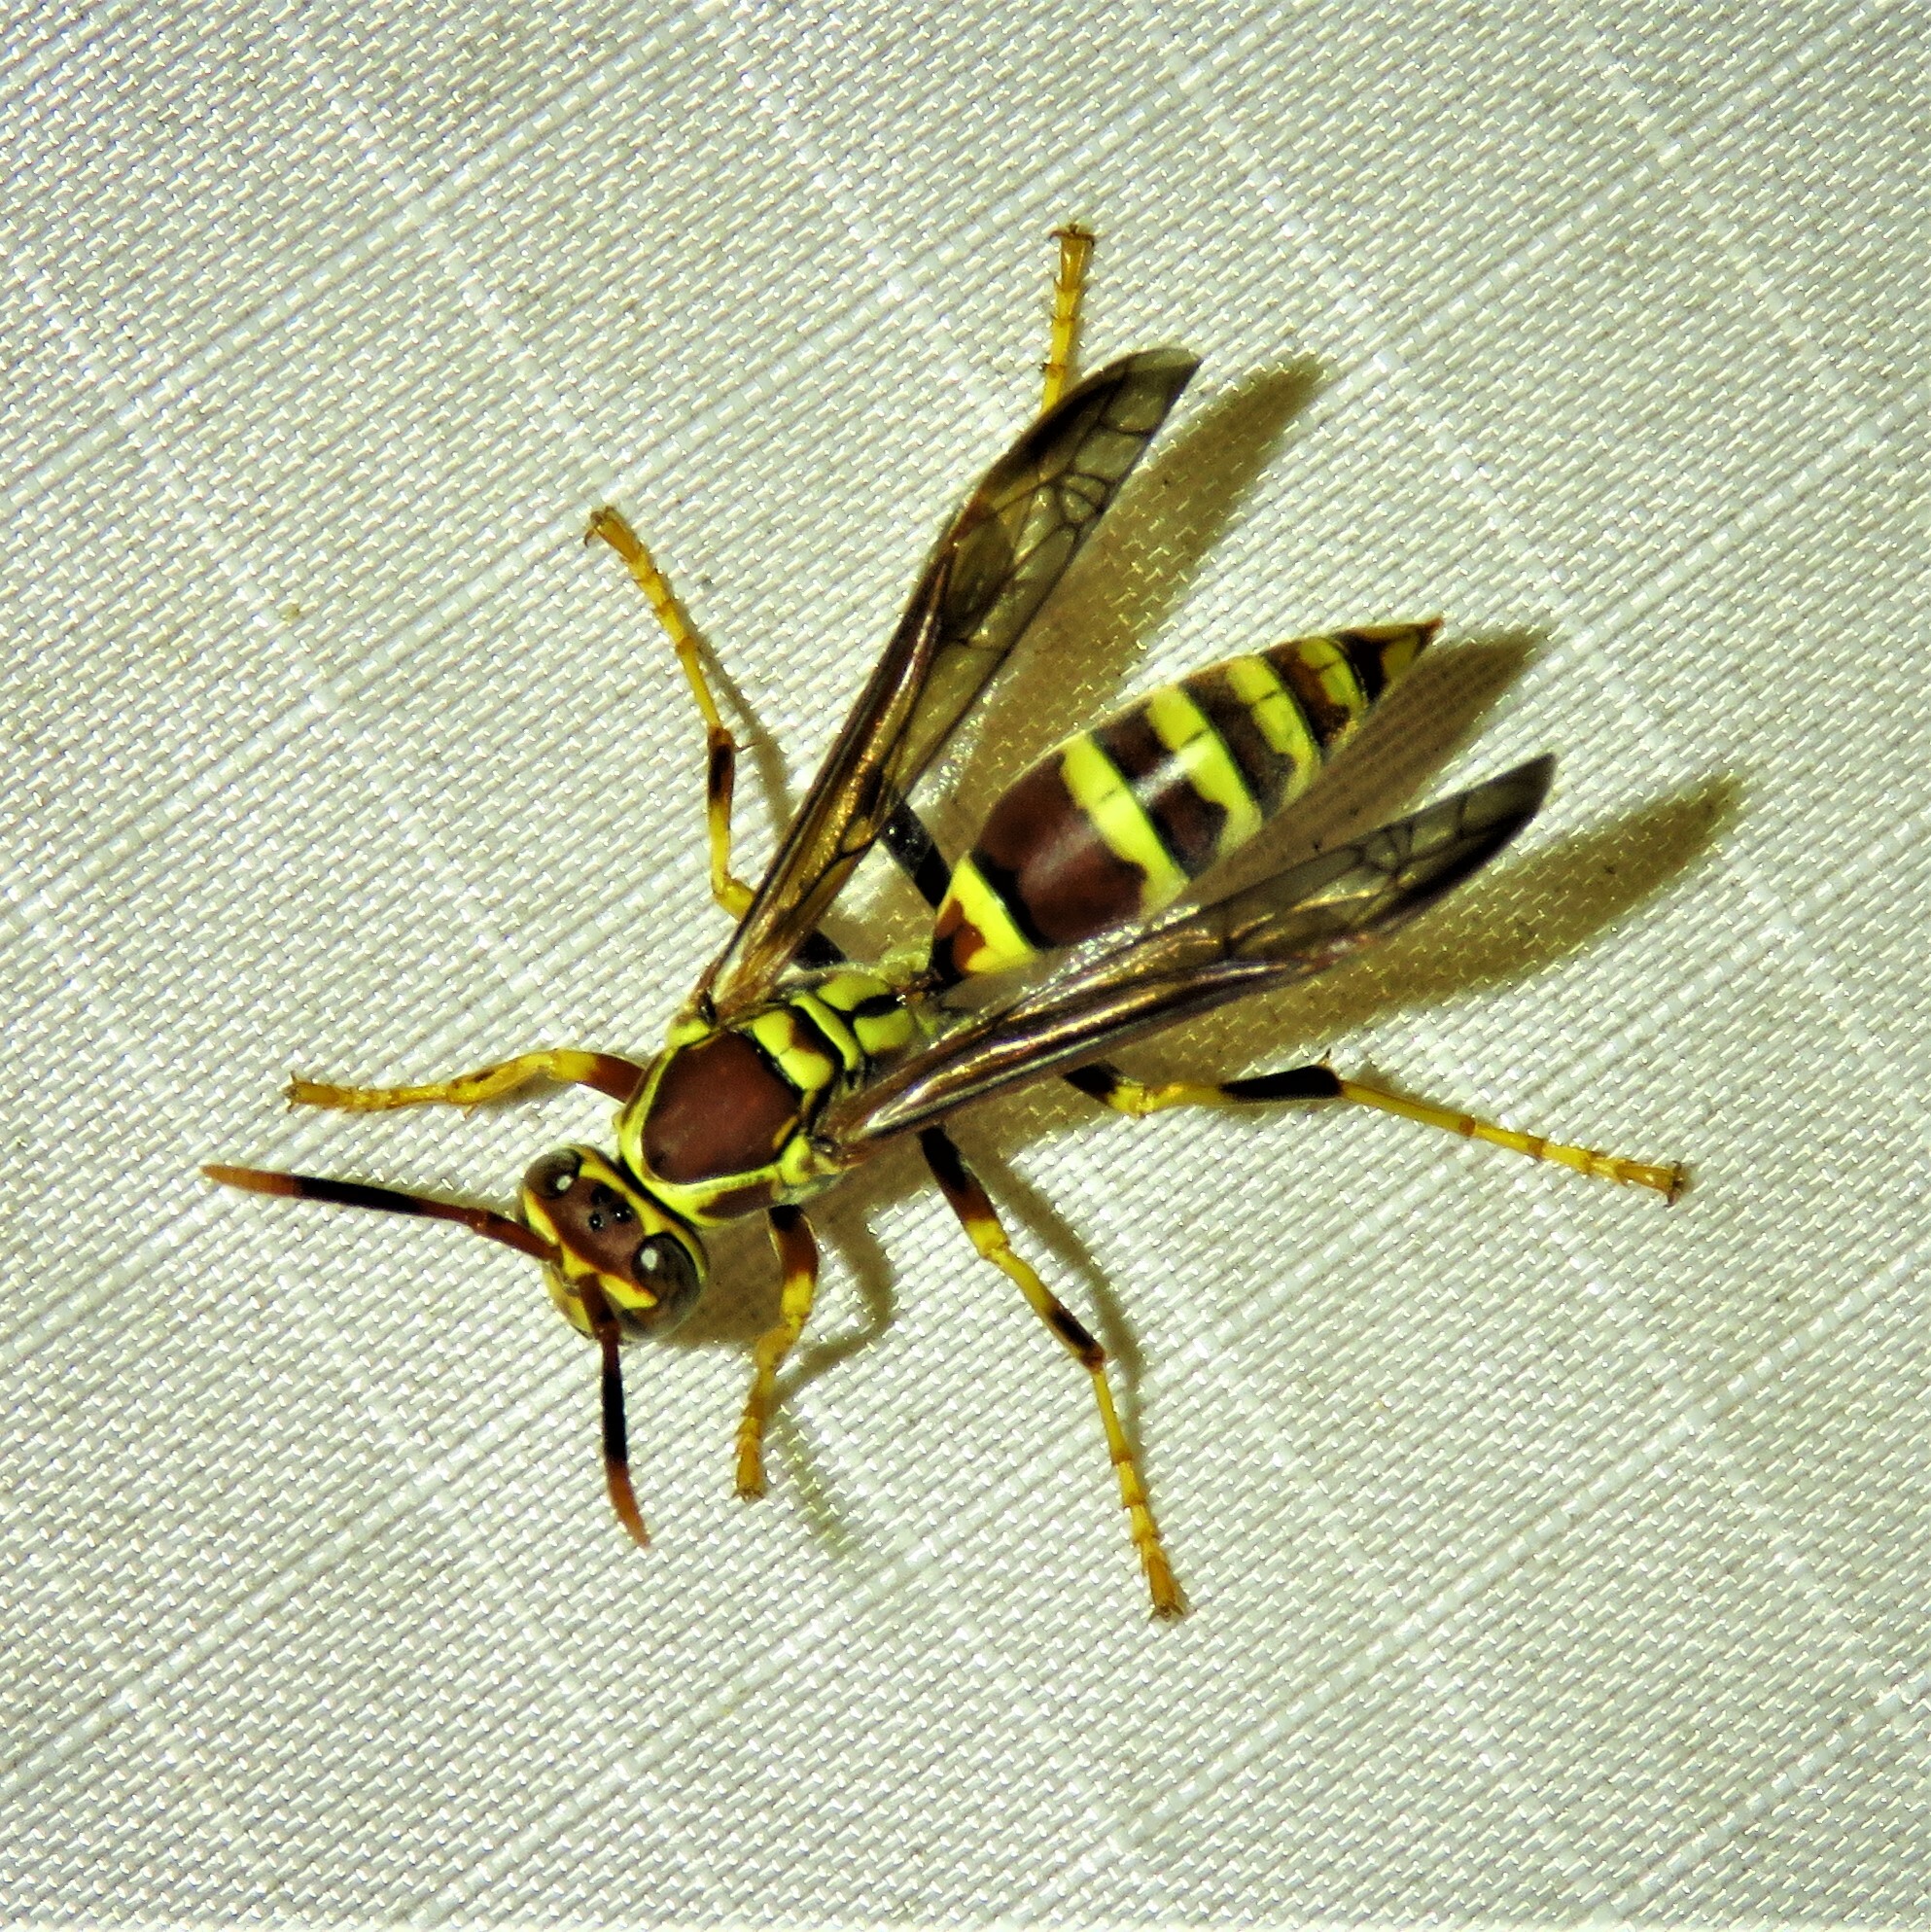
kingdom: Animalia
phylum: Arthropoda
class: Insecta
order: Hymenoptera
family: Eumenidae
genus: Polistes
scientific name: Polistes exclamans
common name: Paper wasp
